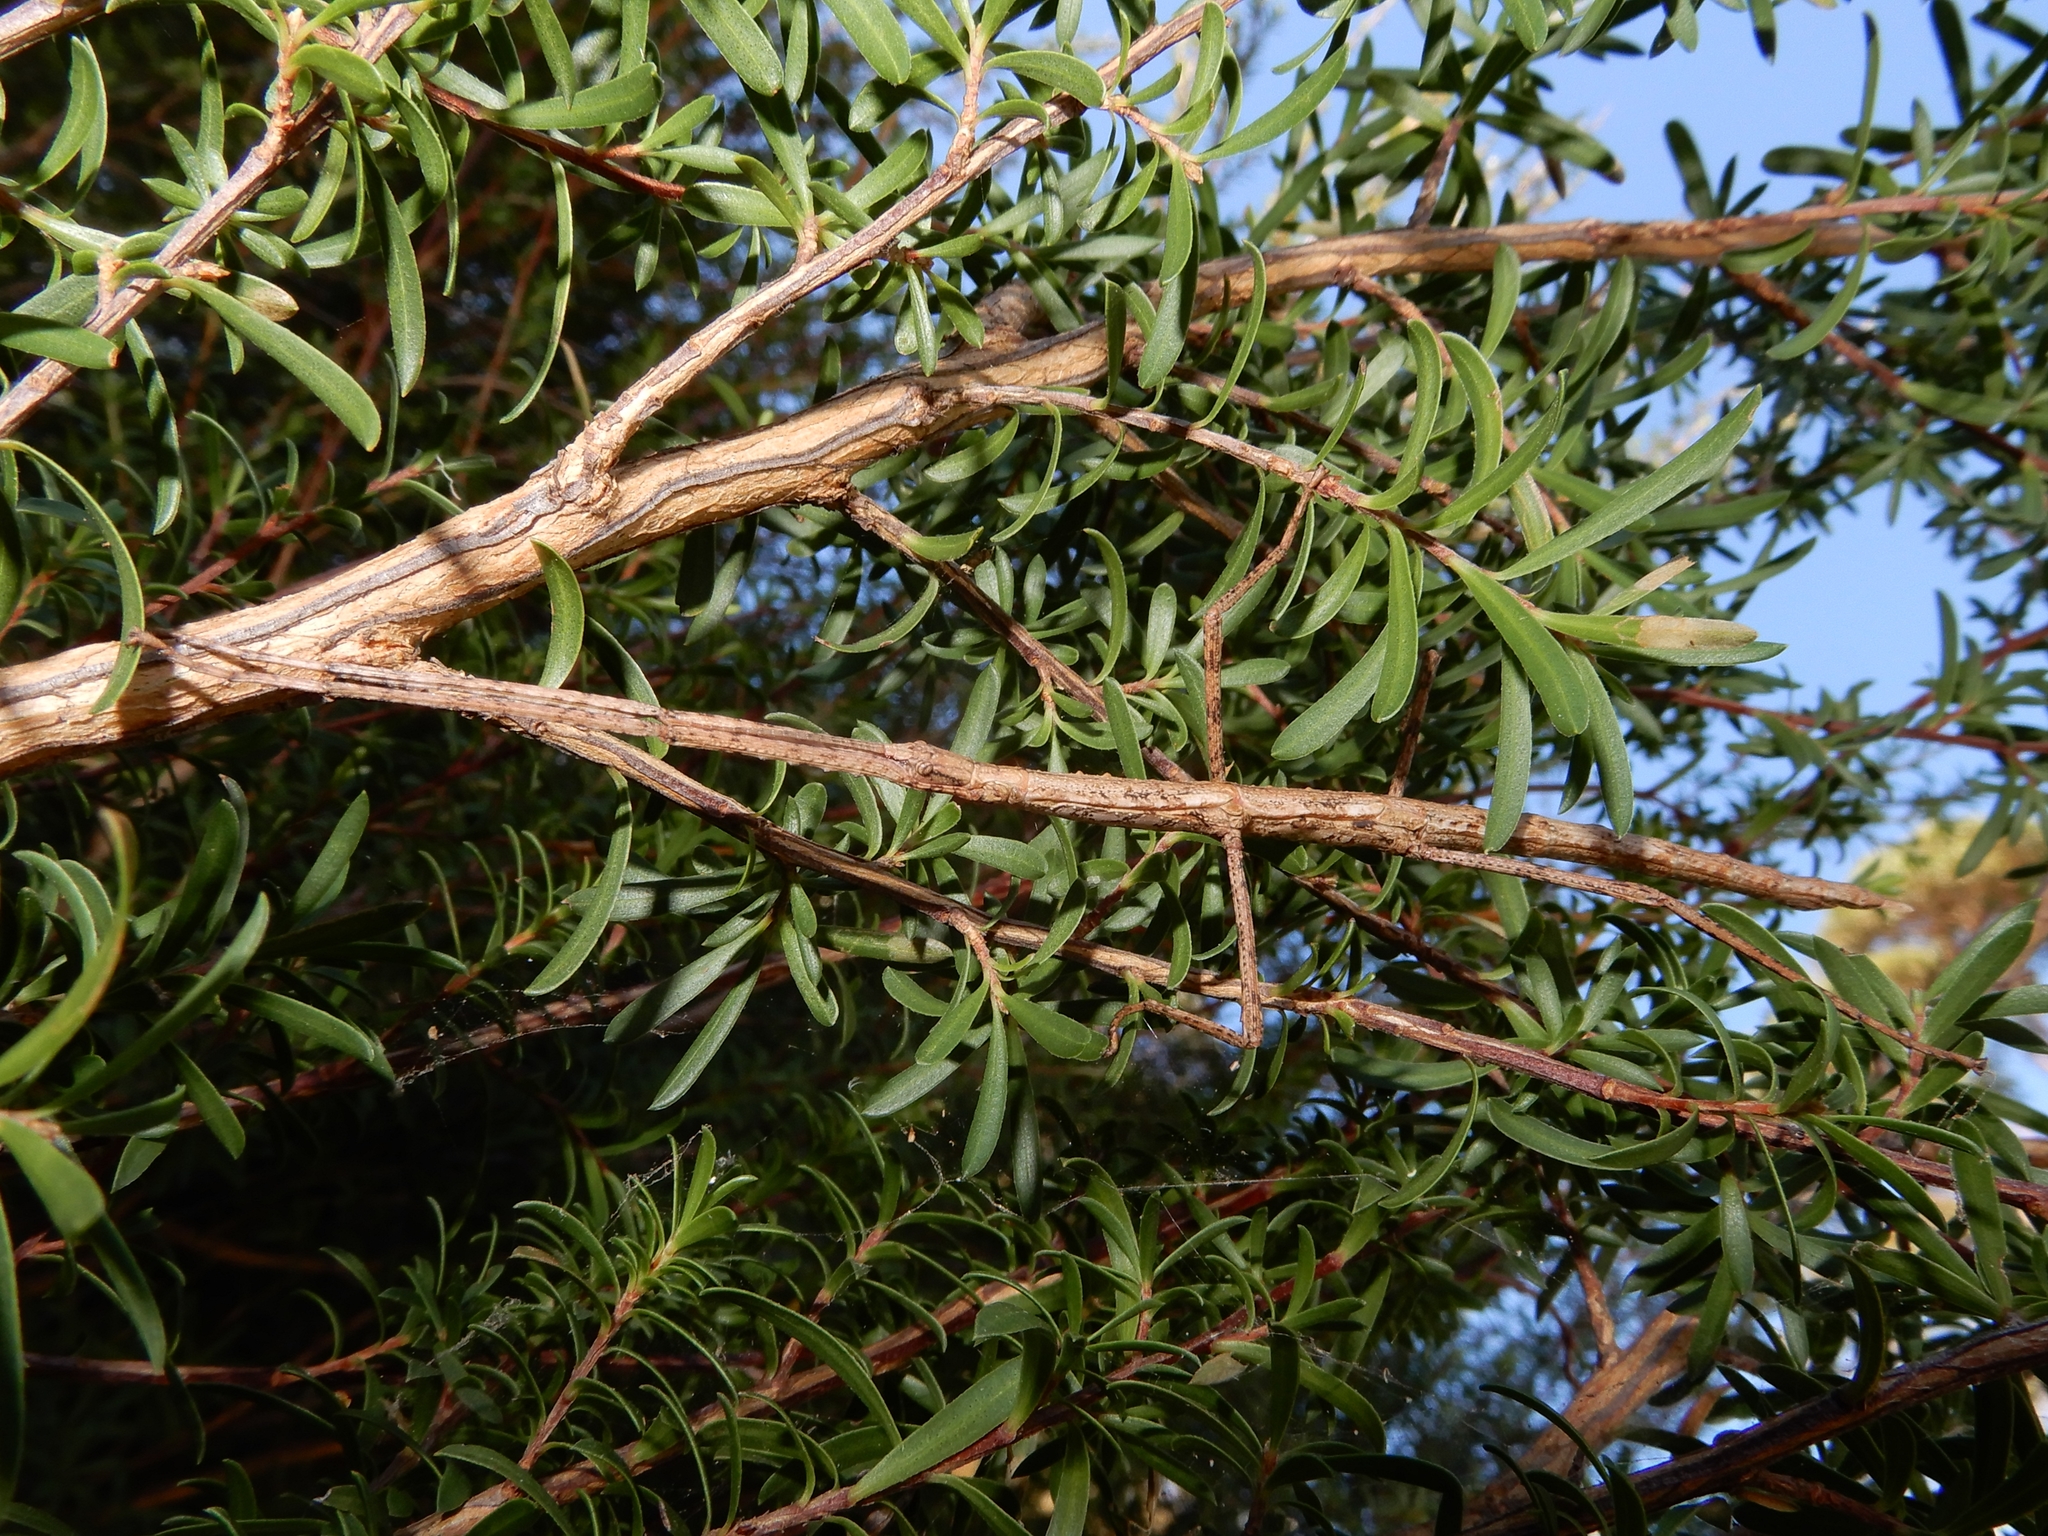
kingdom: Animalia
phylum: Arthropoda
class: Insecta
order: Phasmida
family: Phasmatidae
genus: Clitarchus
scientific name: Clitarchus hookeri
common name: Smooth stick insect
